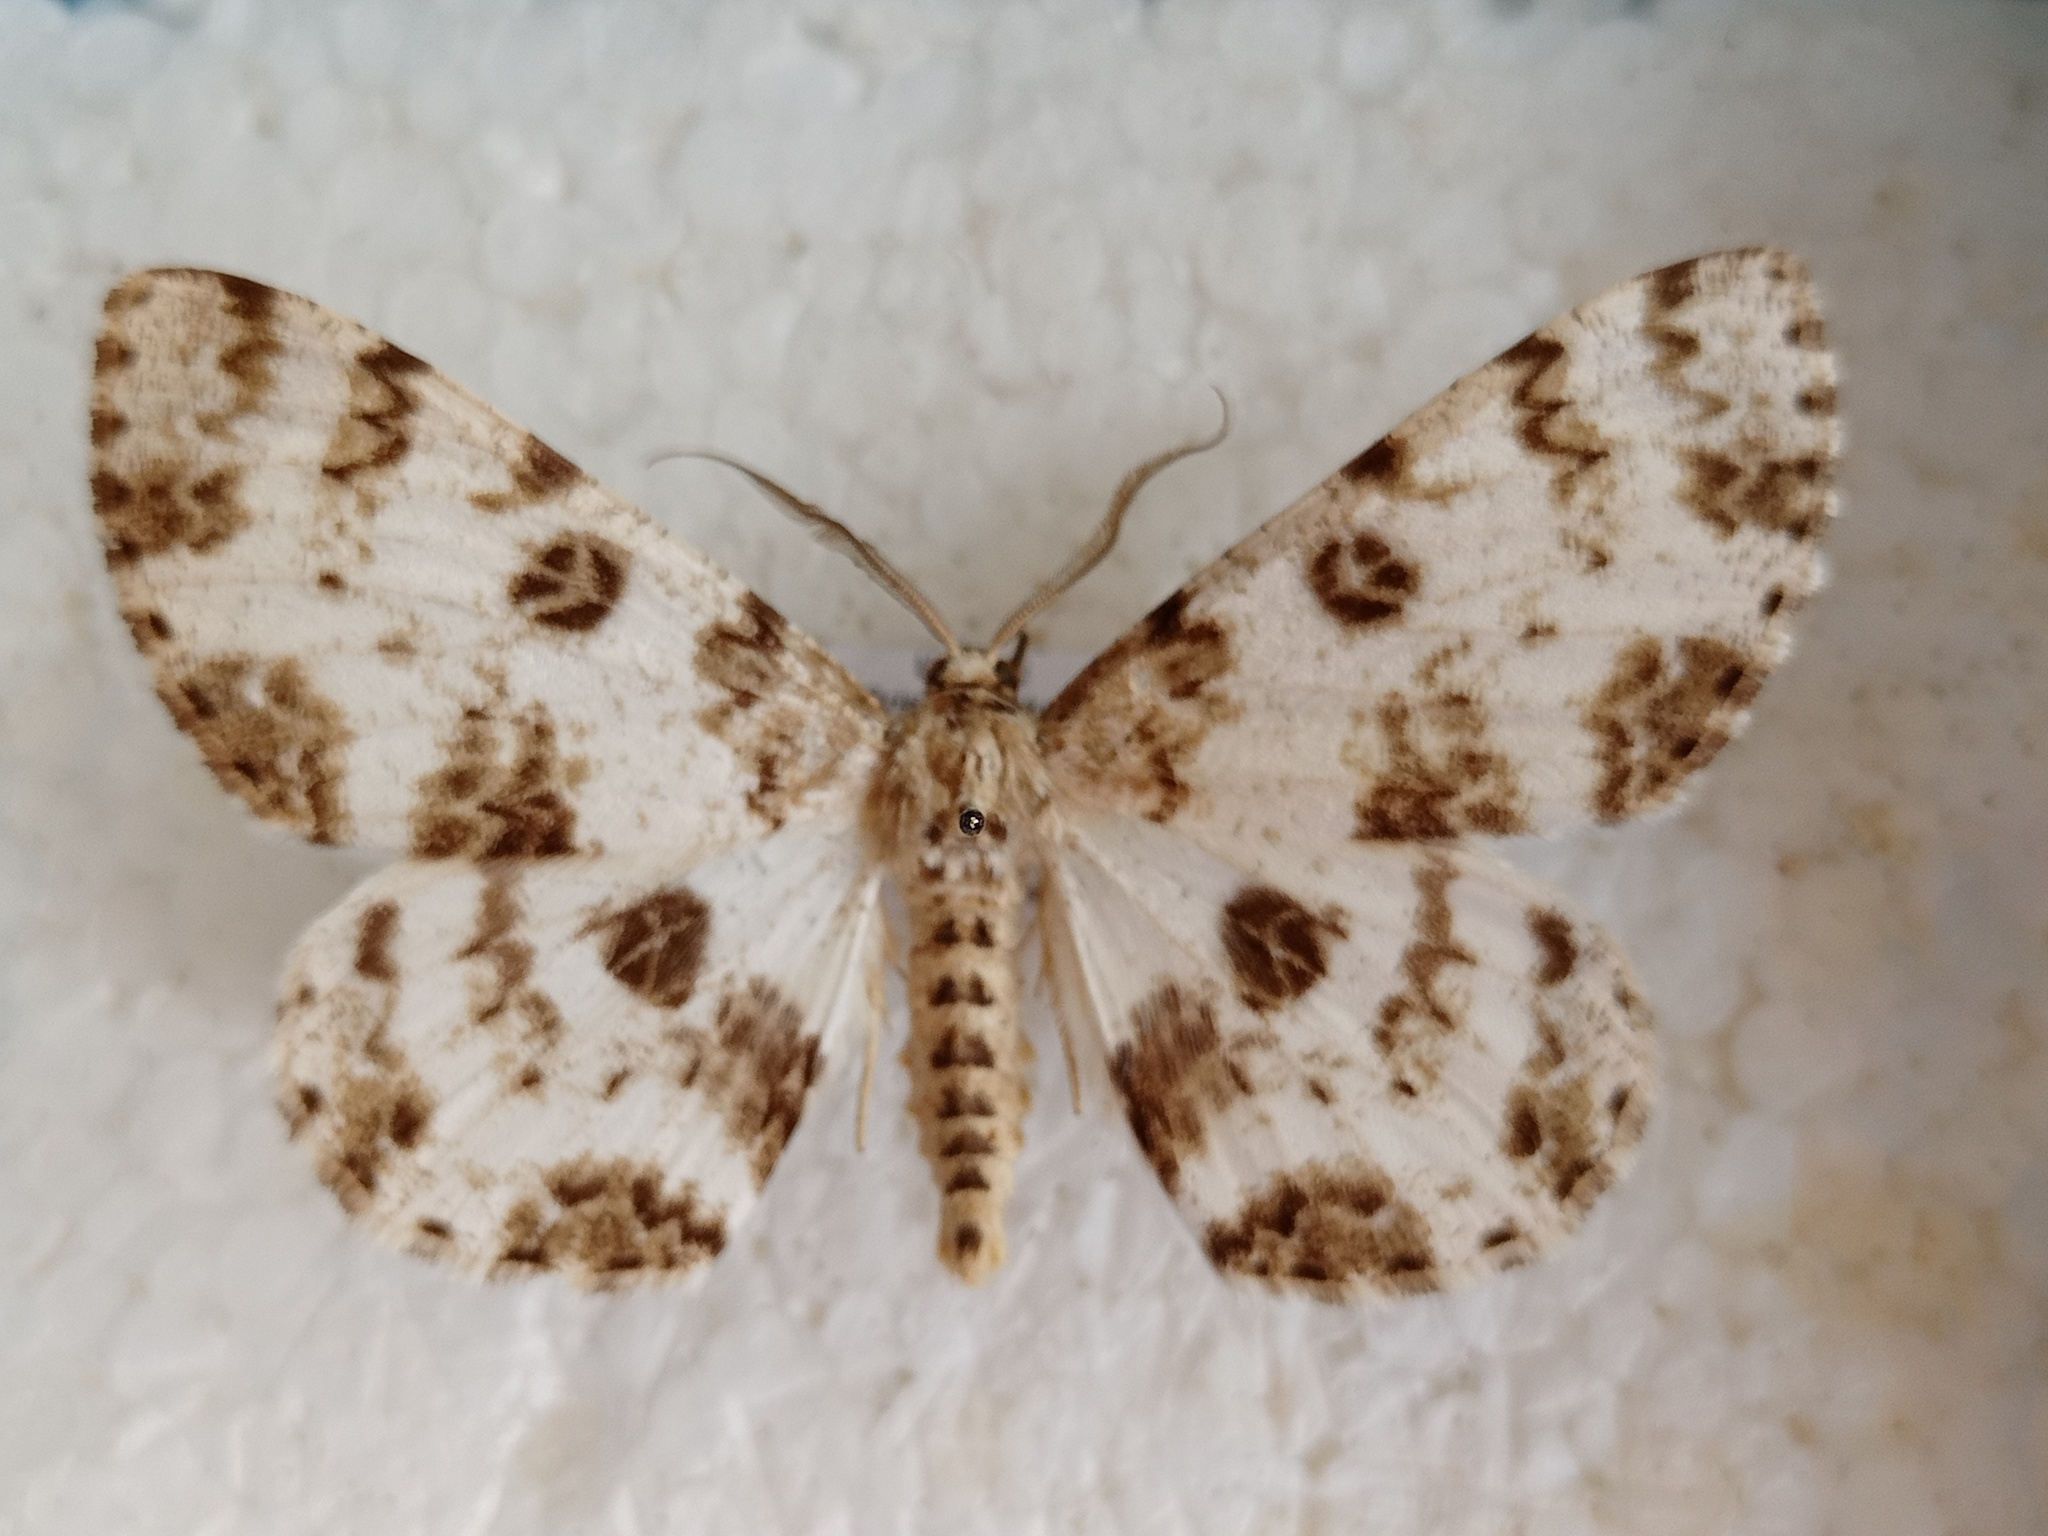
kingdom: Animalia
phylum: Arthropoda
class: Insecta
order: Lepidoptera
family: Geometridae
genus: Ophthalmitis
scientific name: Ophthalmitis albosignaria
